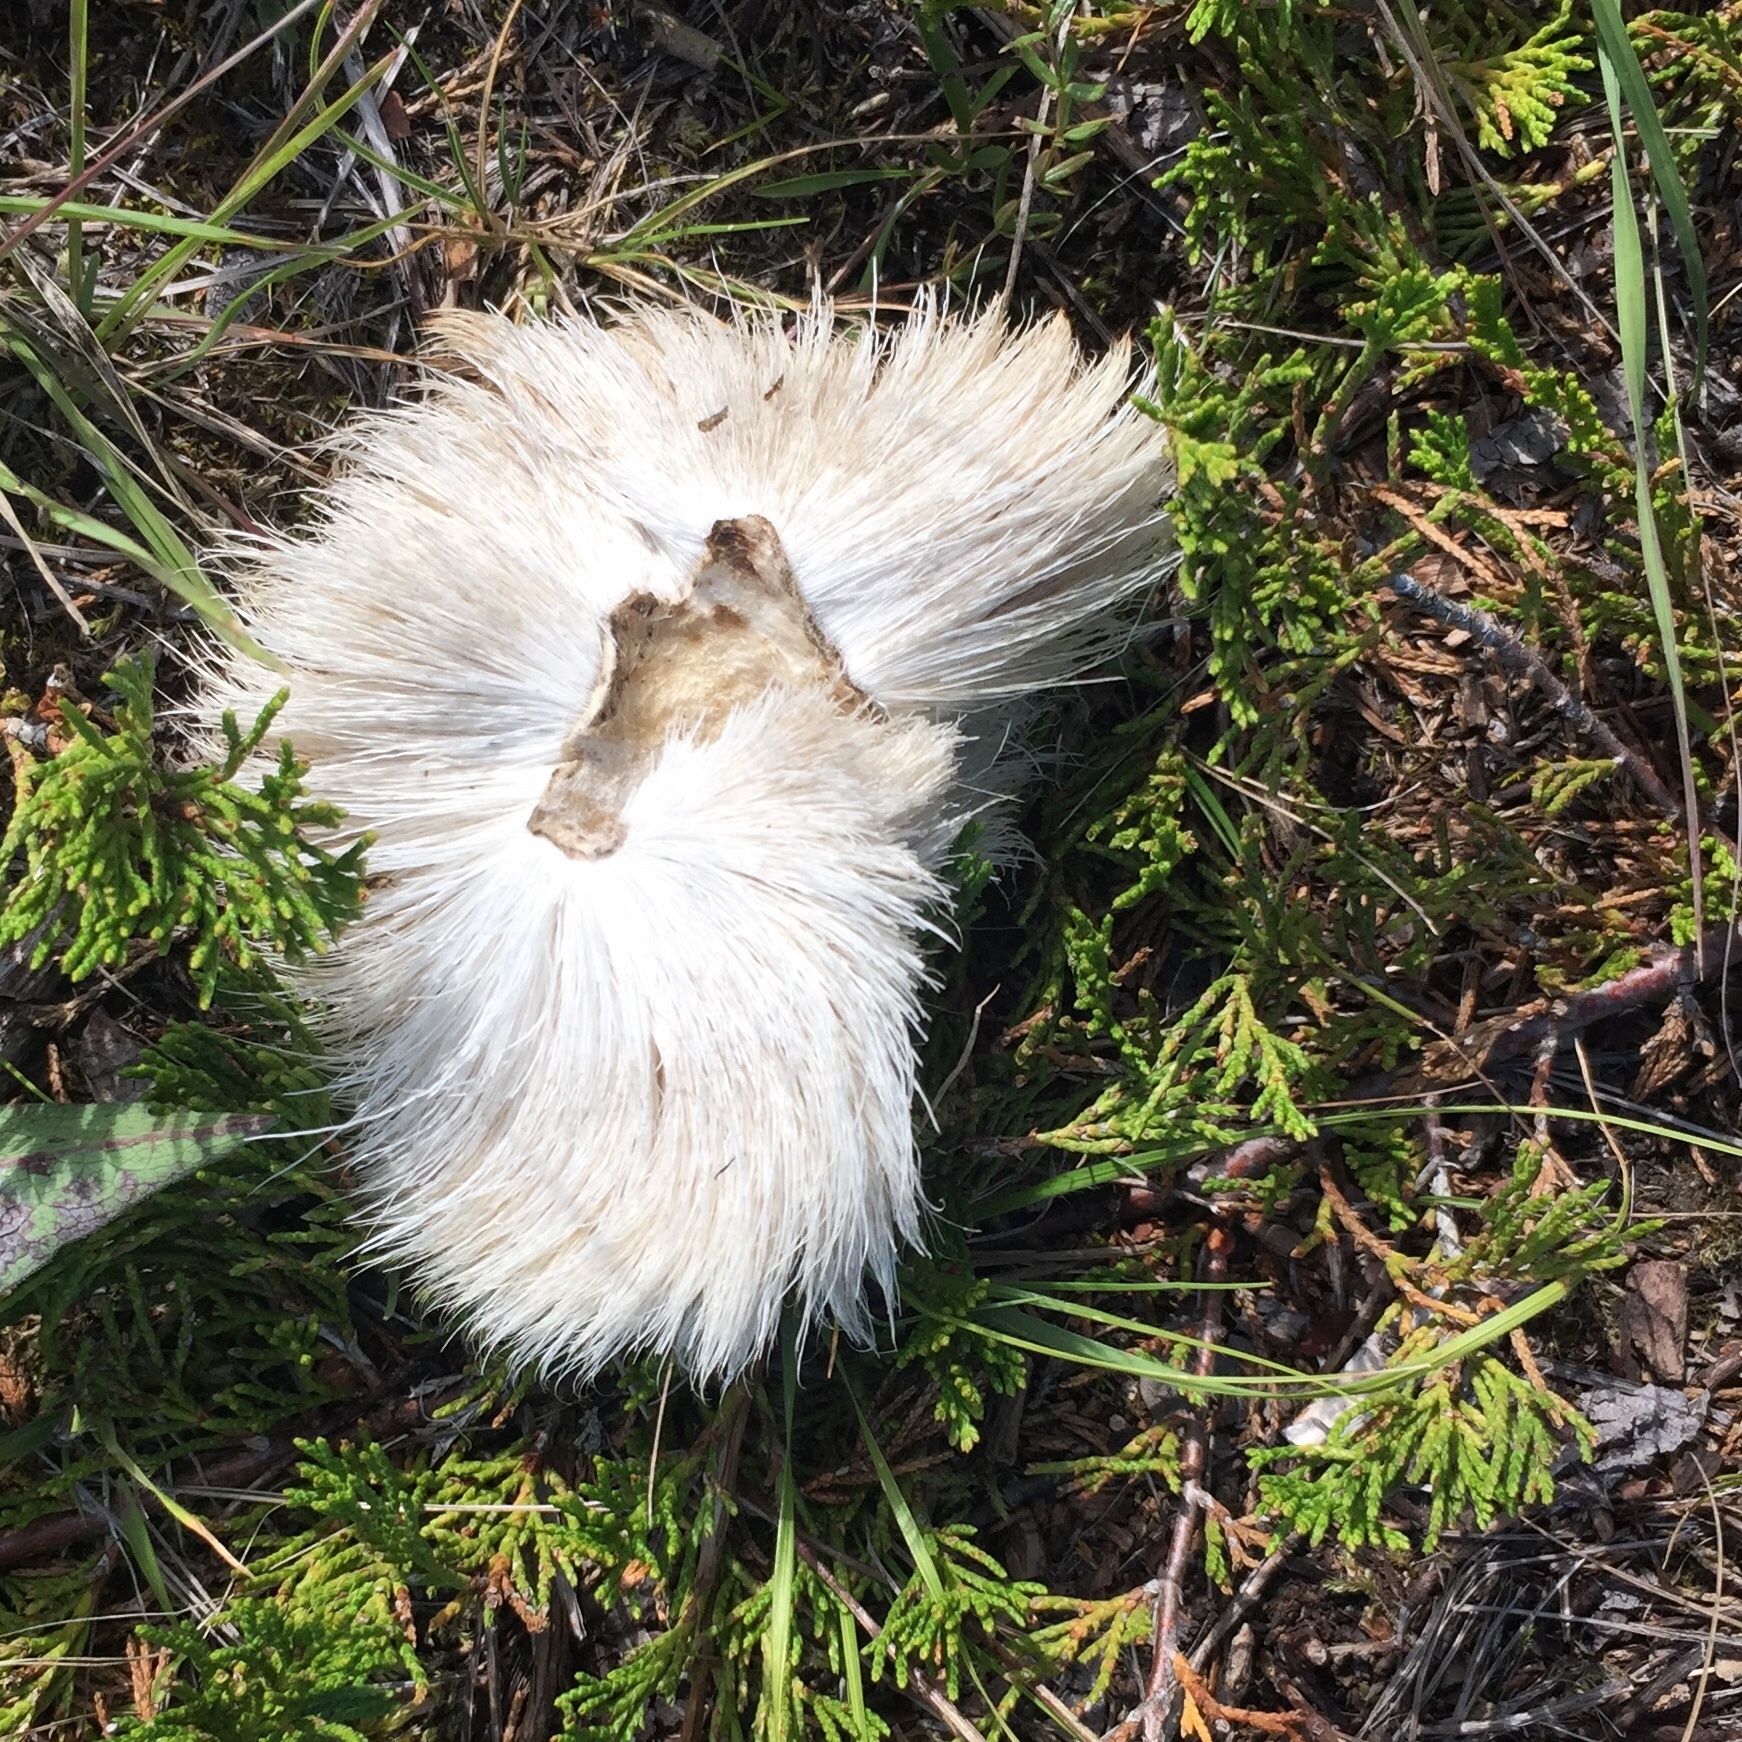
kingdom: Animalia
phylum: Chordata
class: Mammalia
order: Artiodactyla
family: Cervidae
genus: Odocoileus
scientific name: Odocoileus virginianus
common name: White-tailed deer
